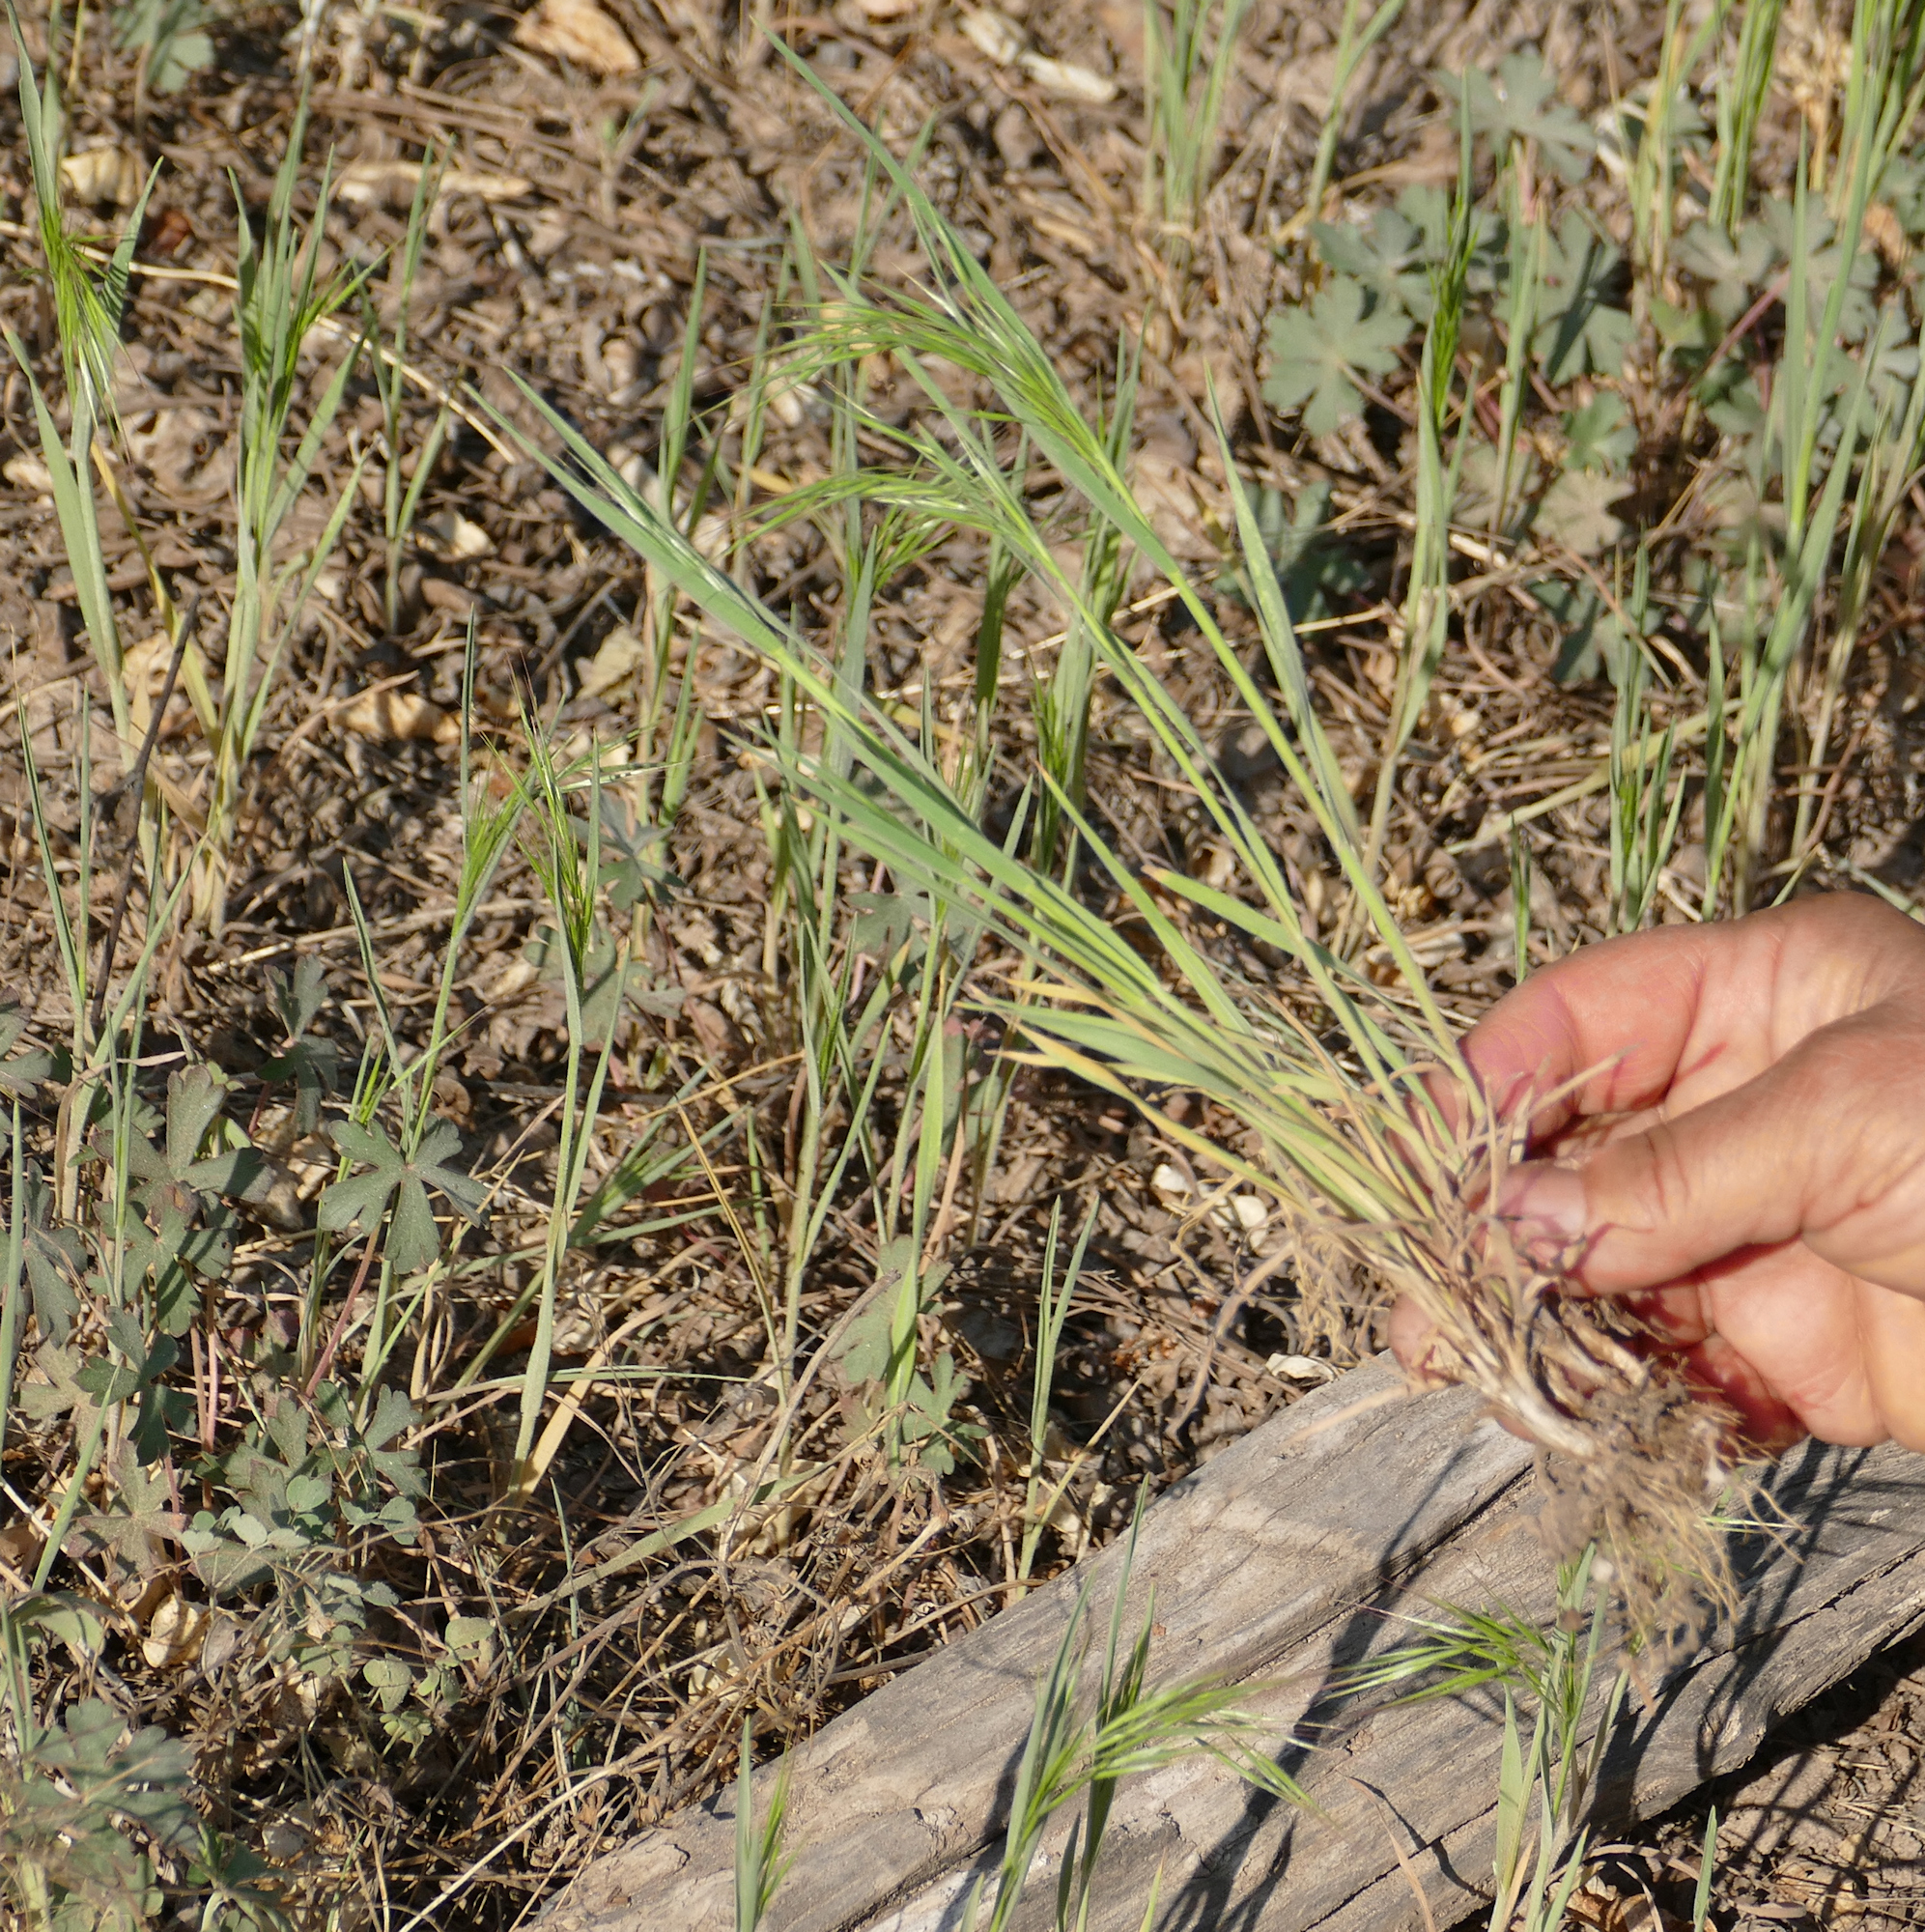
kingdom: Plantae
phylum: Tracheophyta
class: Liliopsida
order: Poales
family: Poaceae
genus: Bromus
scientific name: Bromus tectorum
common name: Cheatgrass
